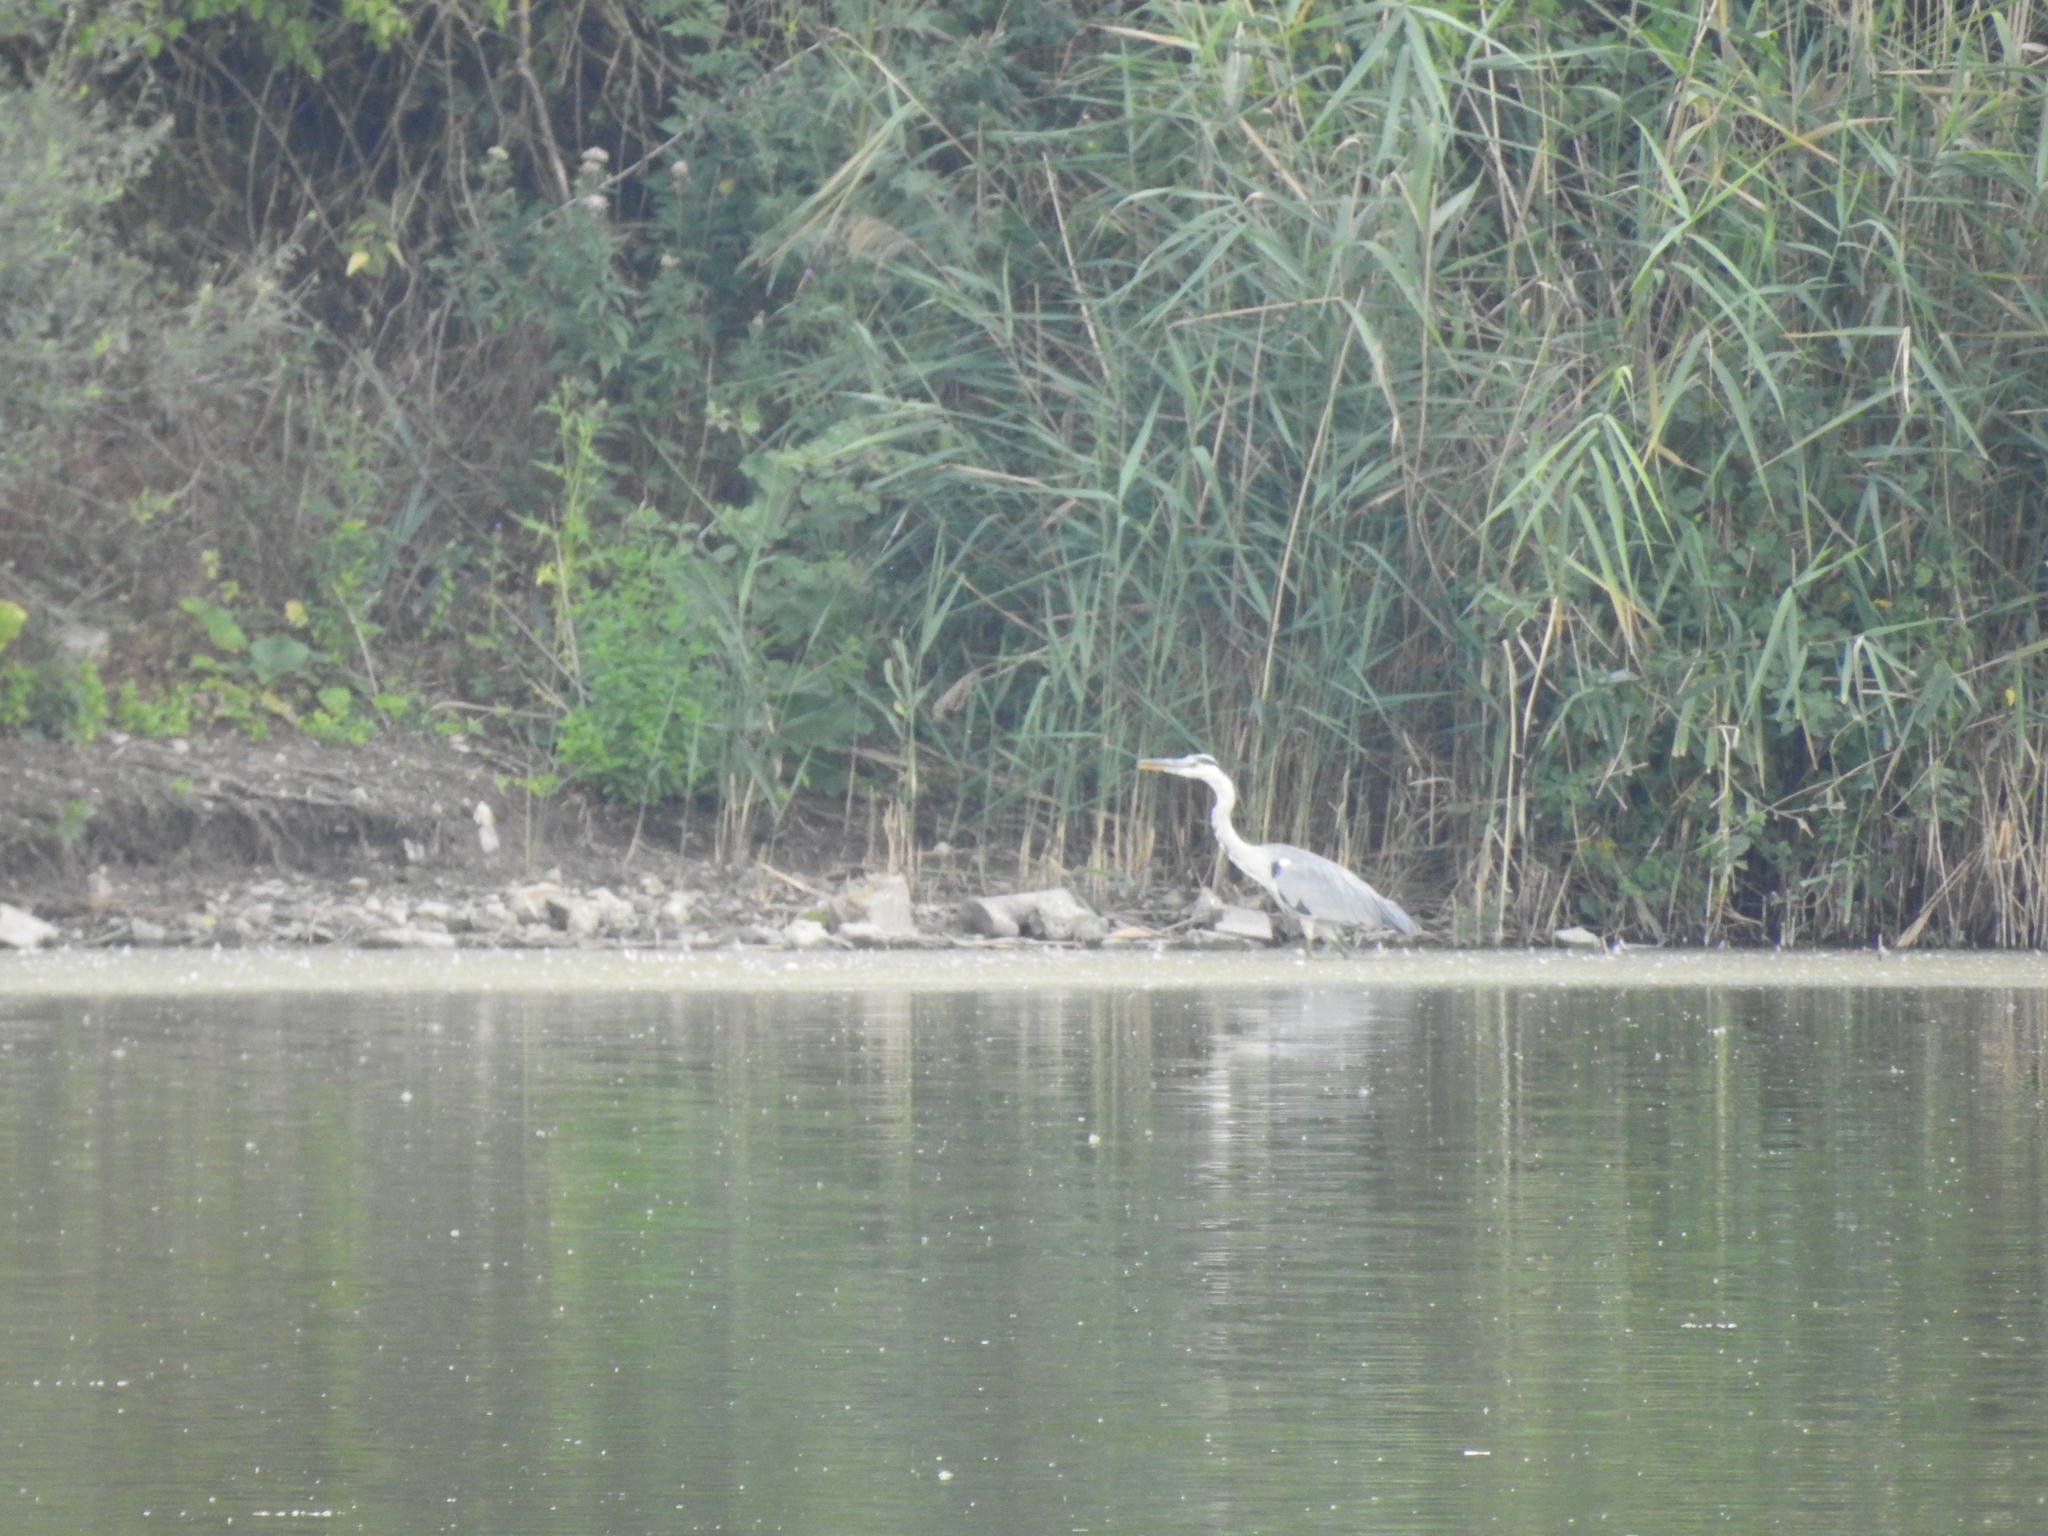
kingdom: Animalia
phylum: Chordata
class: Aves
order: Pelecaniformes
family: Ardeidae
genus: Ardea
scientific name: Ardea cinerea
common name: Grey heron
